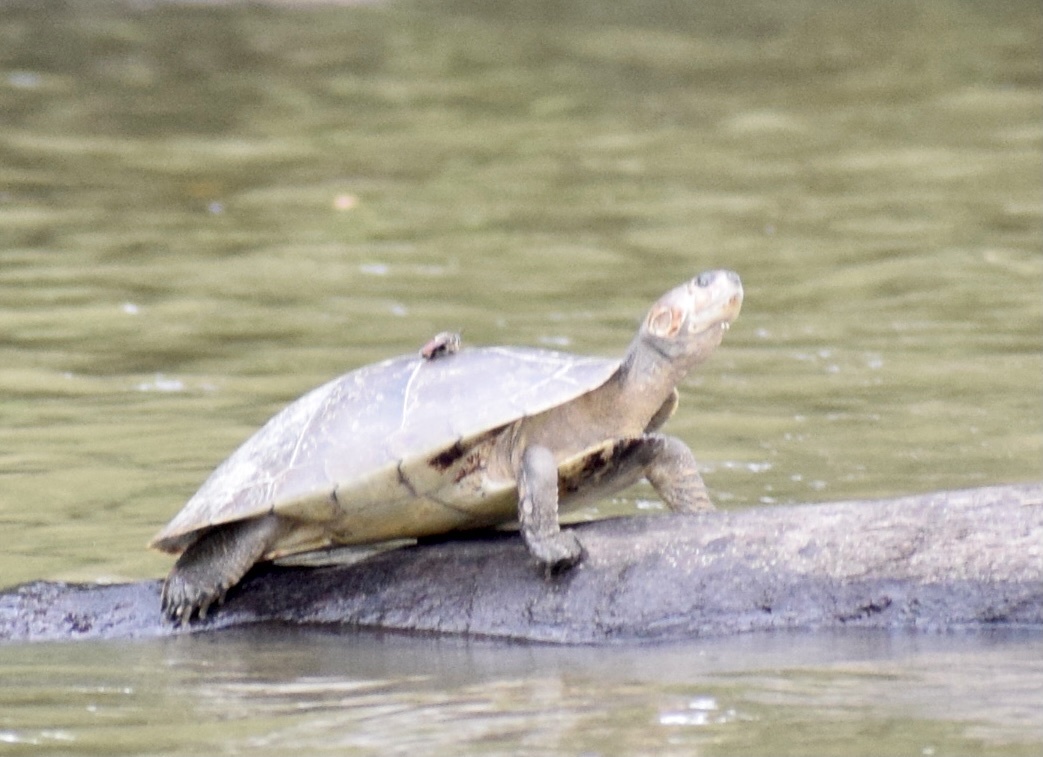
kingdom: Animalia
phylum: Chordata
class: Testudines
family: Podocnemididae
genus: Podocnemis
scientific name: Podocnemis vogli
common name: Savanna side-necked turtle
